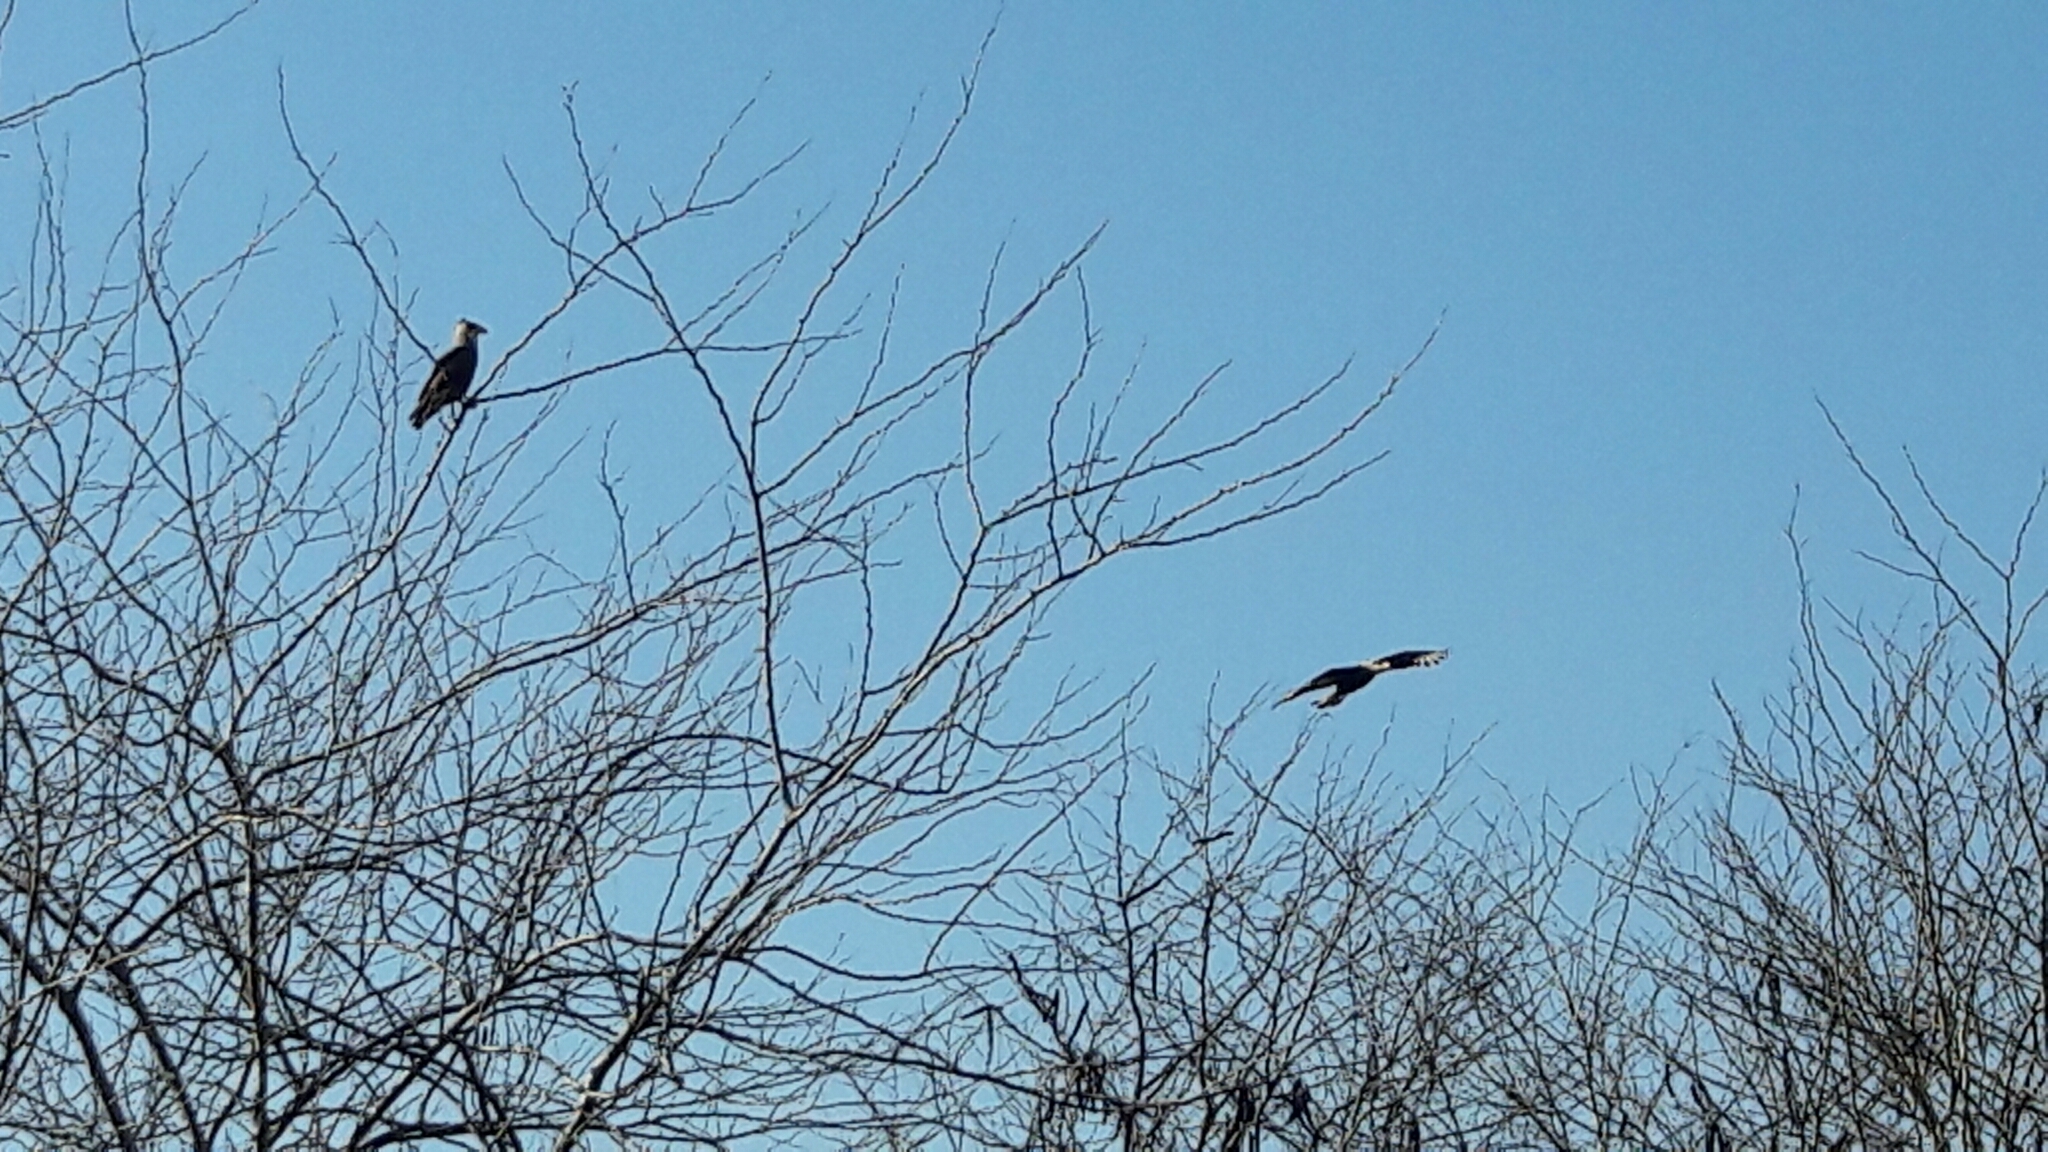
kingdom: Animalia
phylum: Chordata
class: Aves
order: Falconiformes
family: Falconidae
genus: Caracara
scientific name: Caracara plancus
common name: Southern caracara
